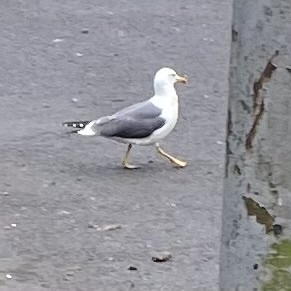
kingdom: Animalia
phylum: Chordata
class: Aves
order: Charadriiformes
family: Laridae
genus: Larus
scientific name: Larus fuscus
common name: Lesser black-backed gull
